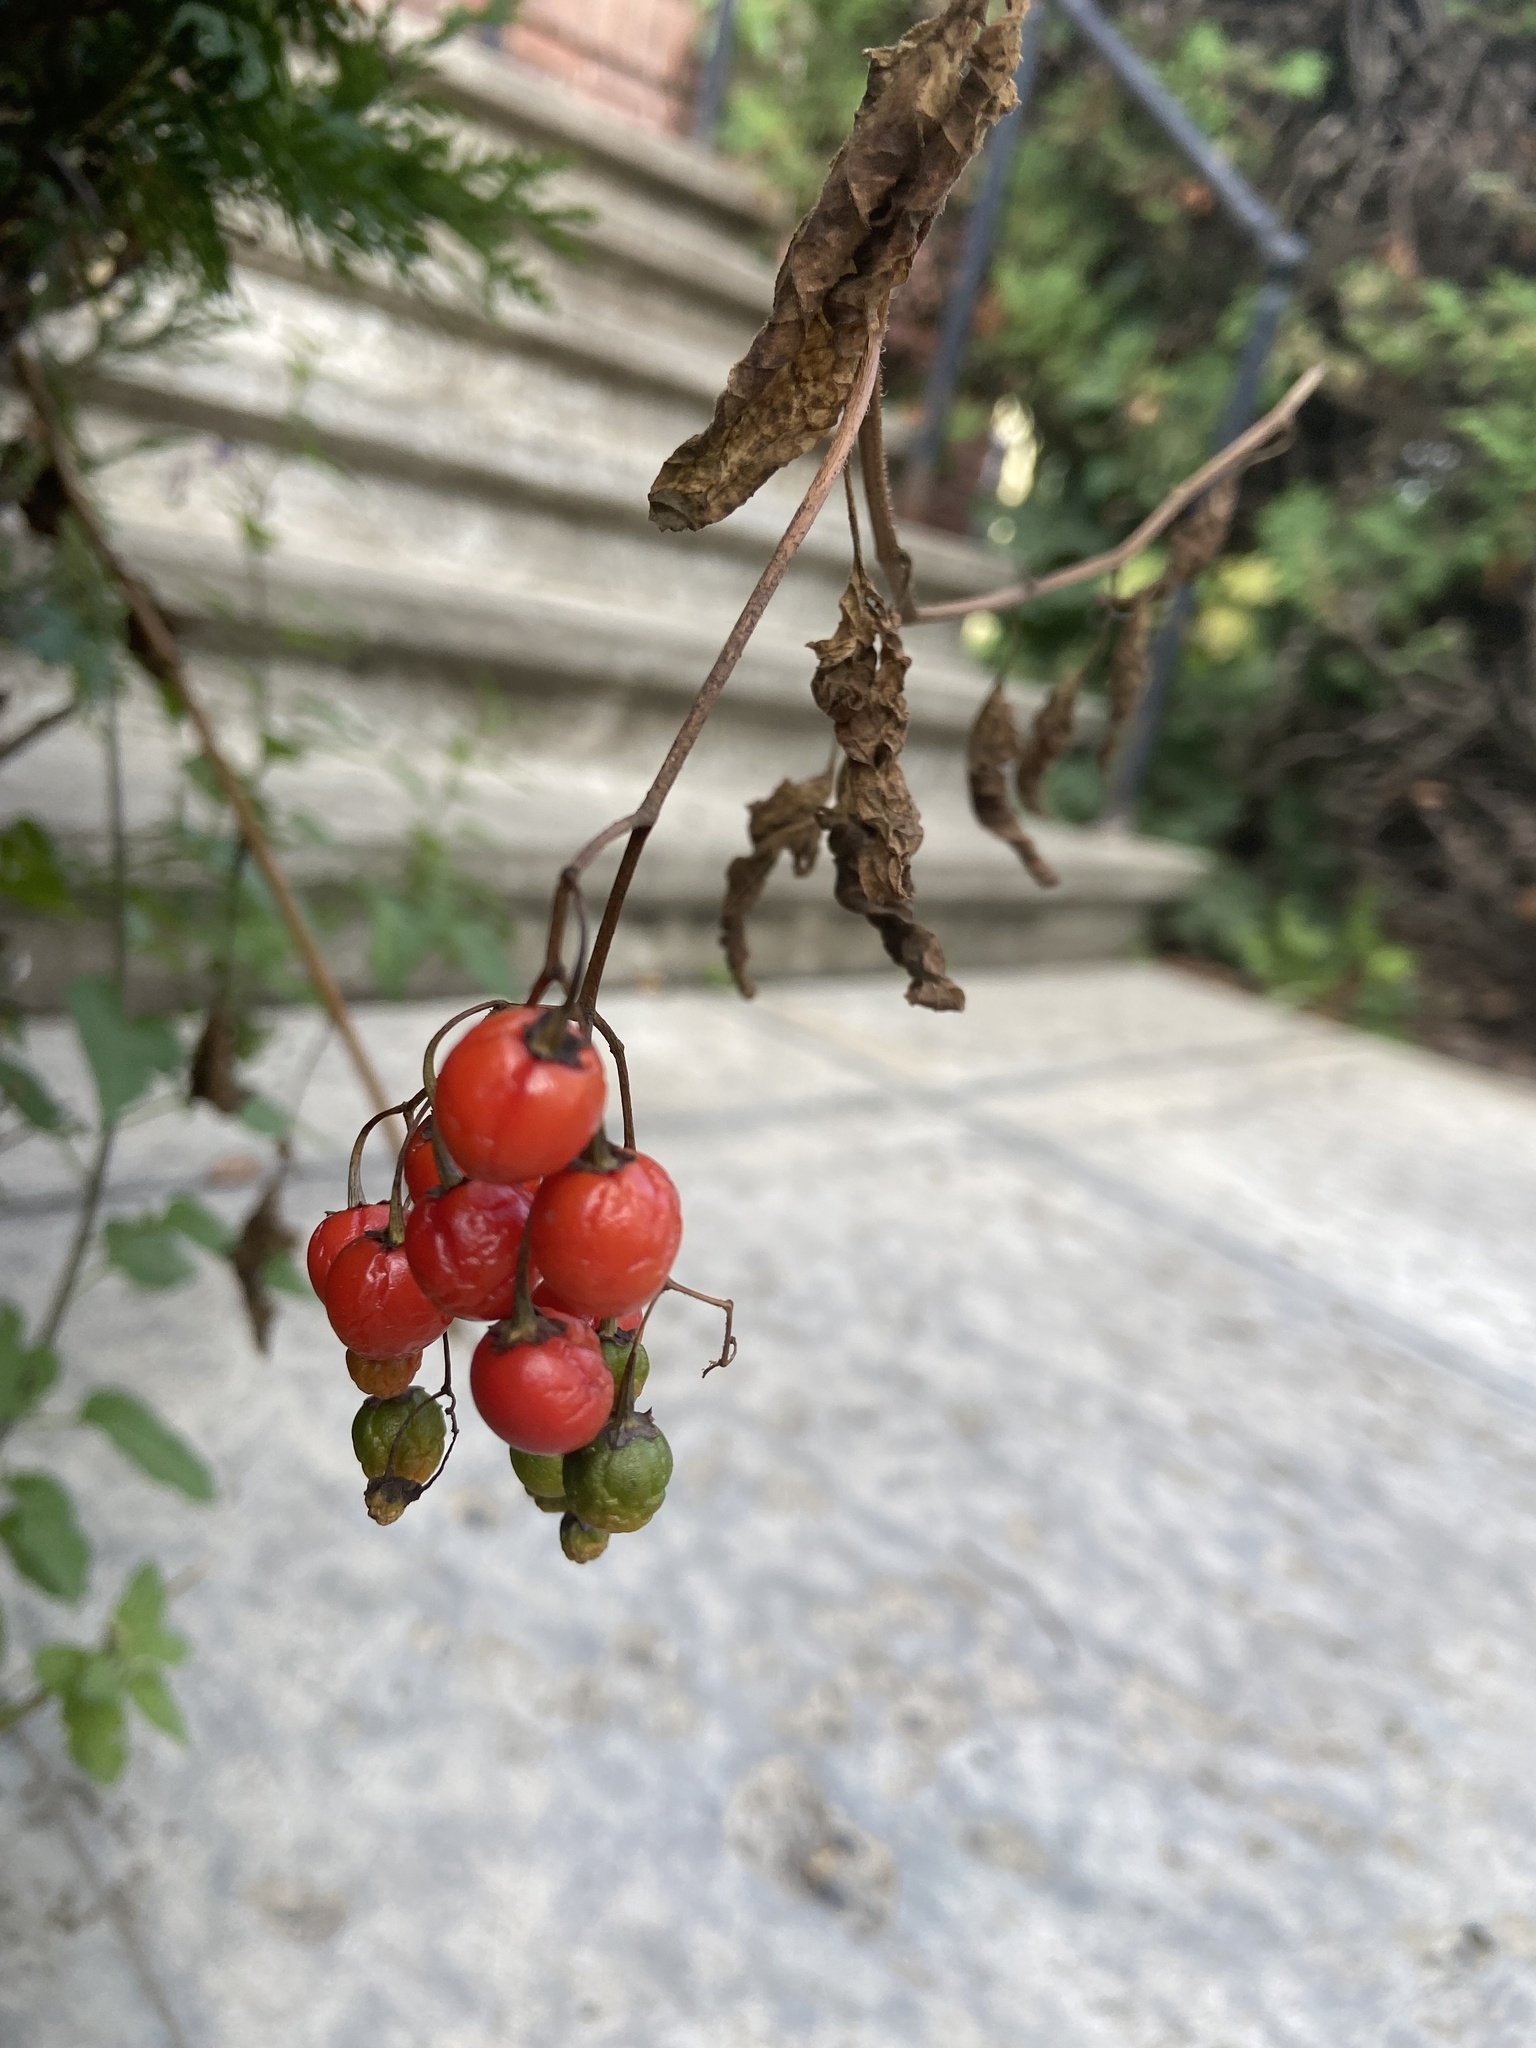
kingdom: Plantae
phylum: Tracheophyta
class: Magnoliopsida
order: Solanales
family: Solanaceae
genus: Solanum
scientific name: Solanum dulcamara
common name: Climbing nightshade
